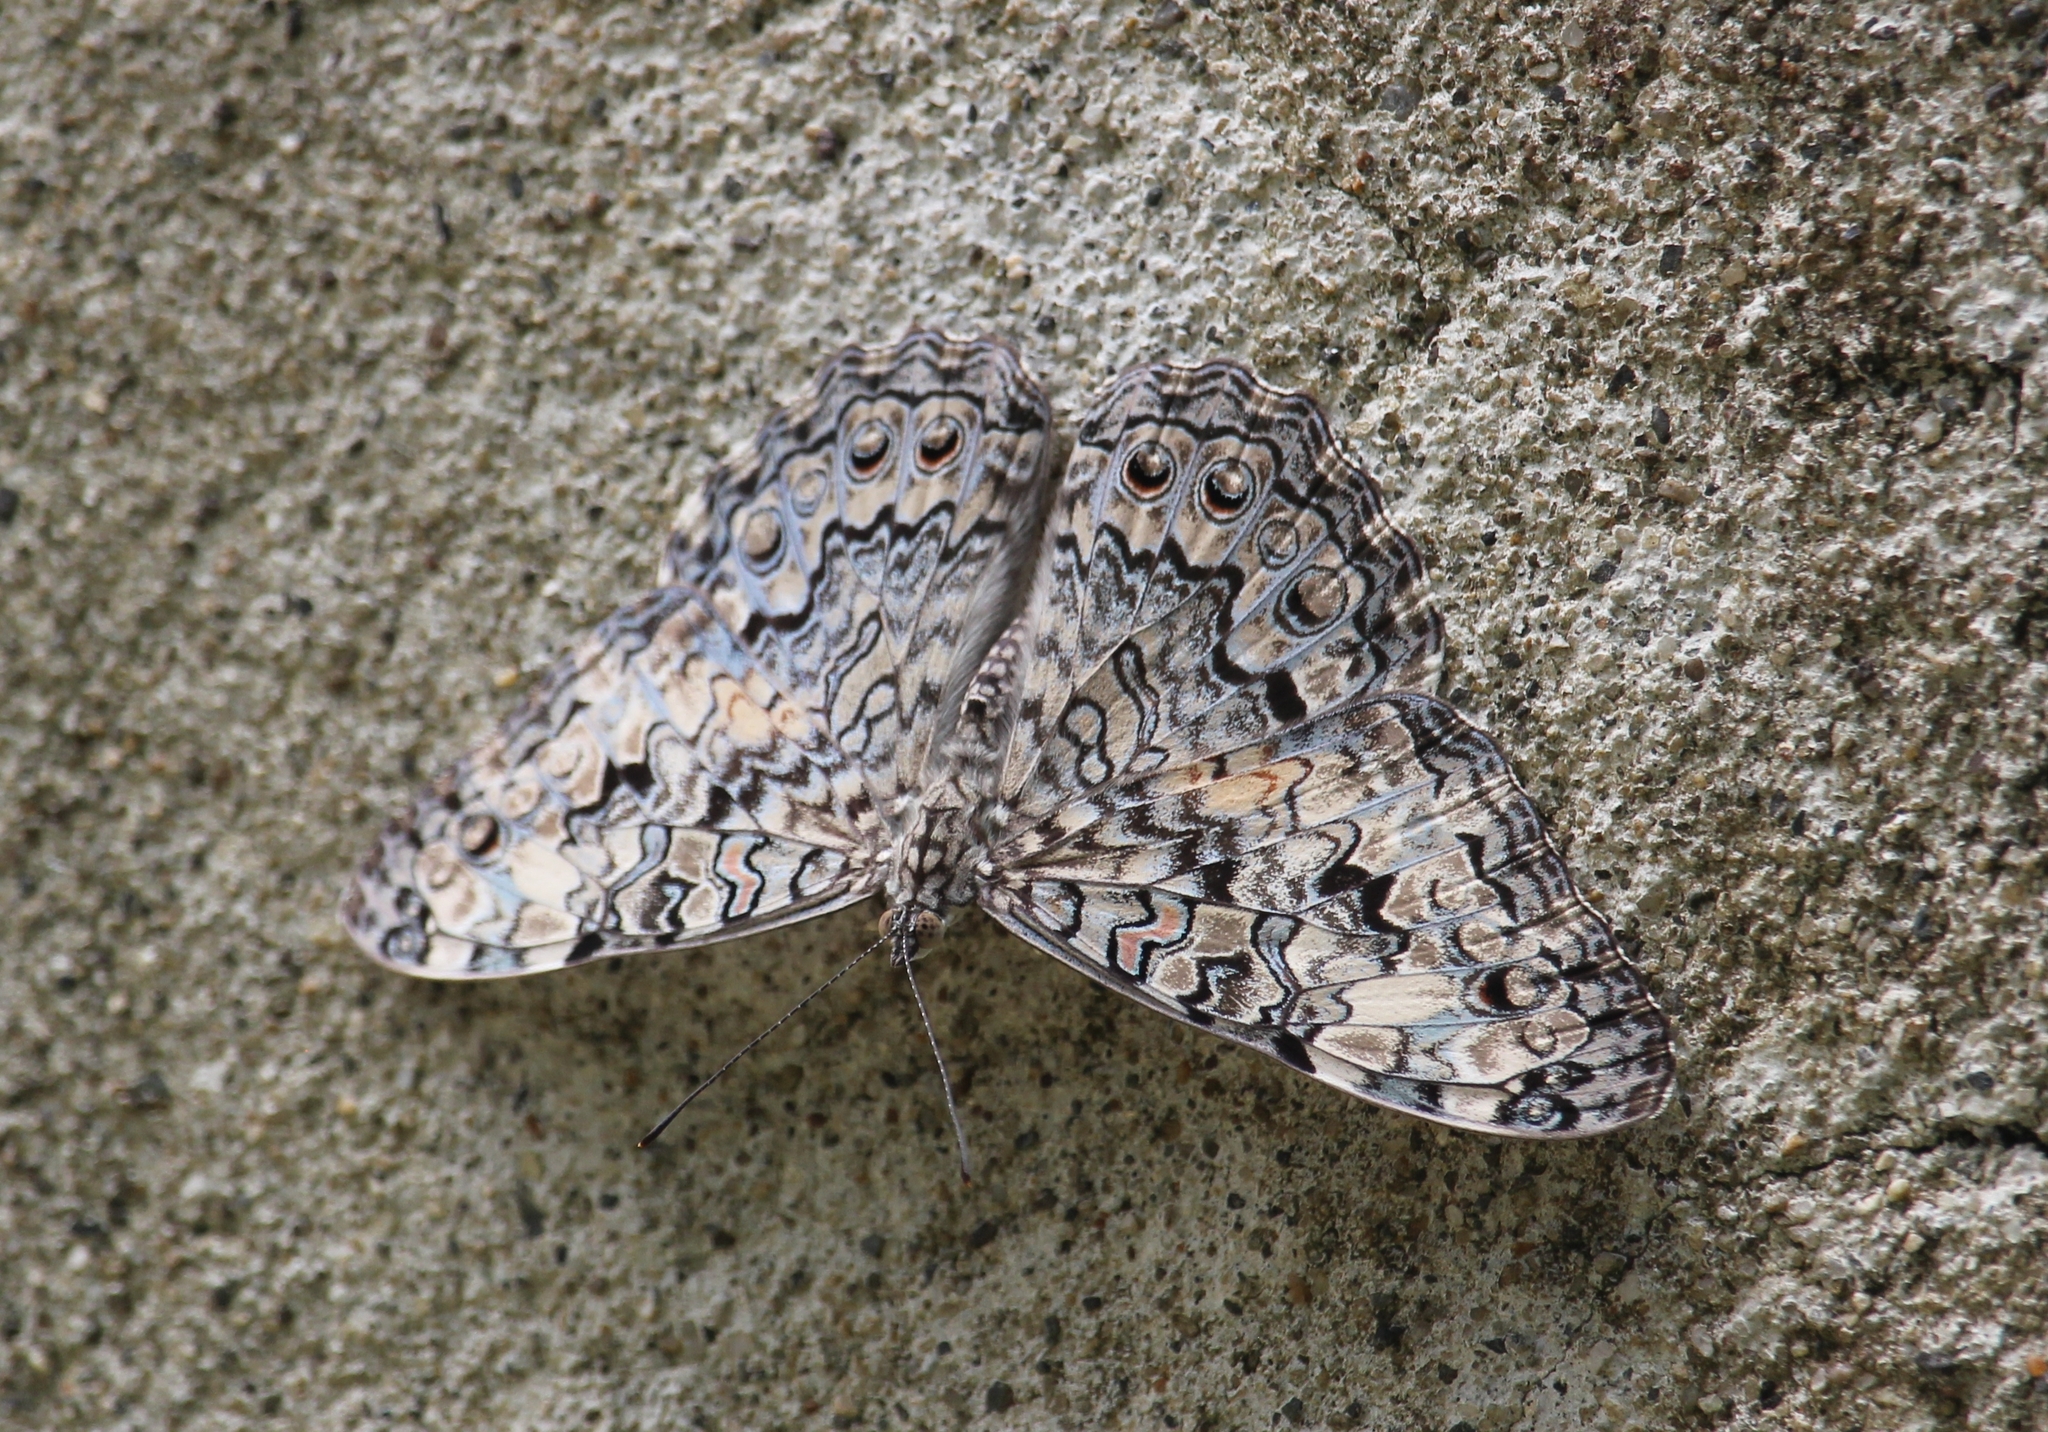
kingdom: Animalia
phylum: Arthropoda
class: Insecta
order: Lepidoptera
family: Nymphalidae
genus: Hamadryas
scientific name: Hamadryas februa
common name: Gray cracker
